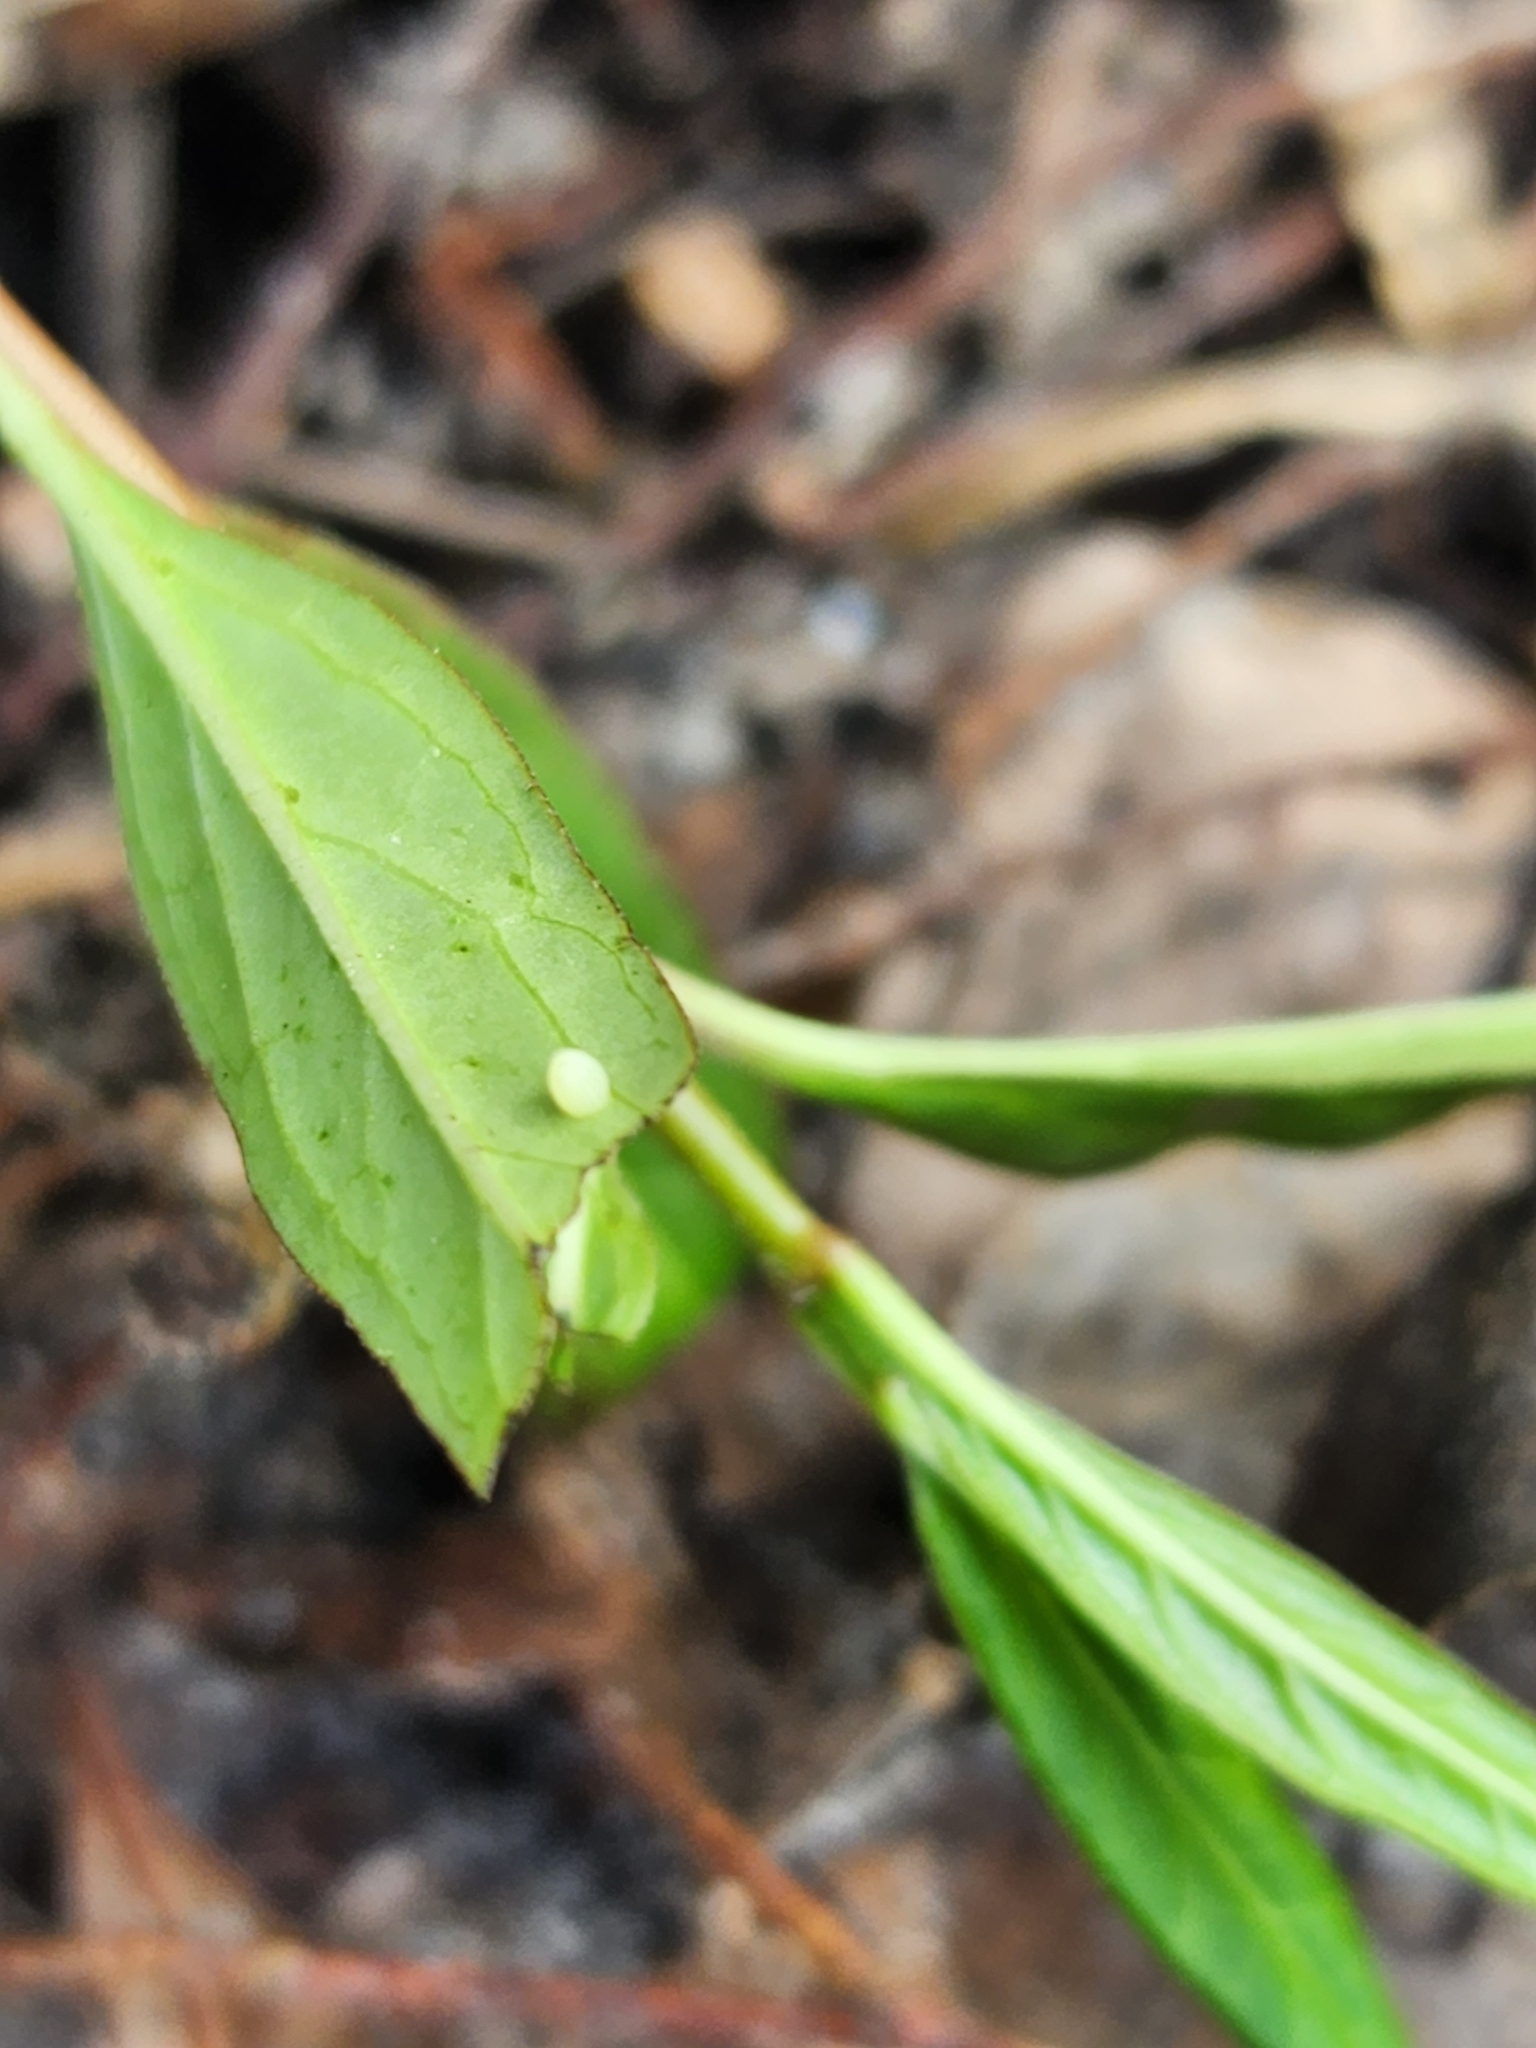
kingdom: Animalia
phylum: Arthropoda
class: Insecta
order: Lepidoptera
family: Nymphalidae
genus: Danaus
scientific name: Danaus gilippus
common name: Queen
